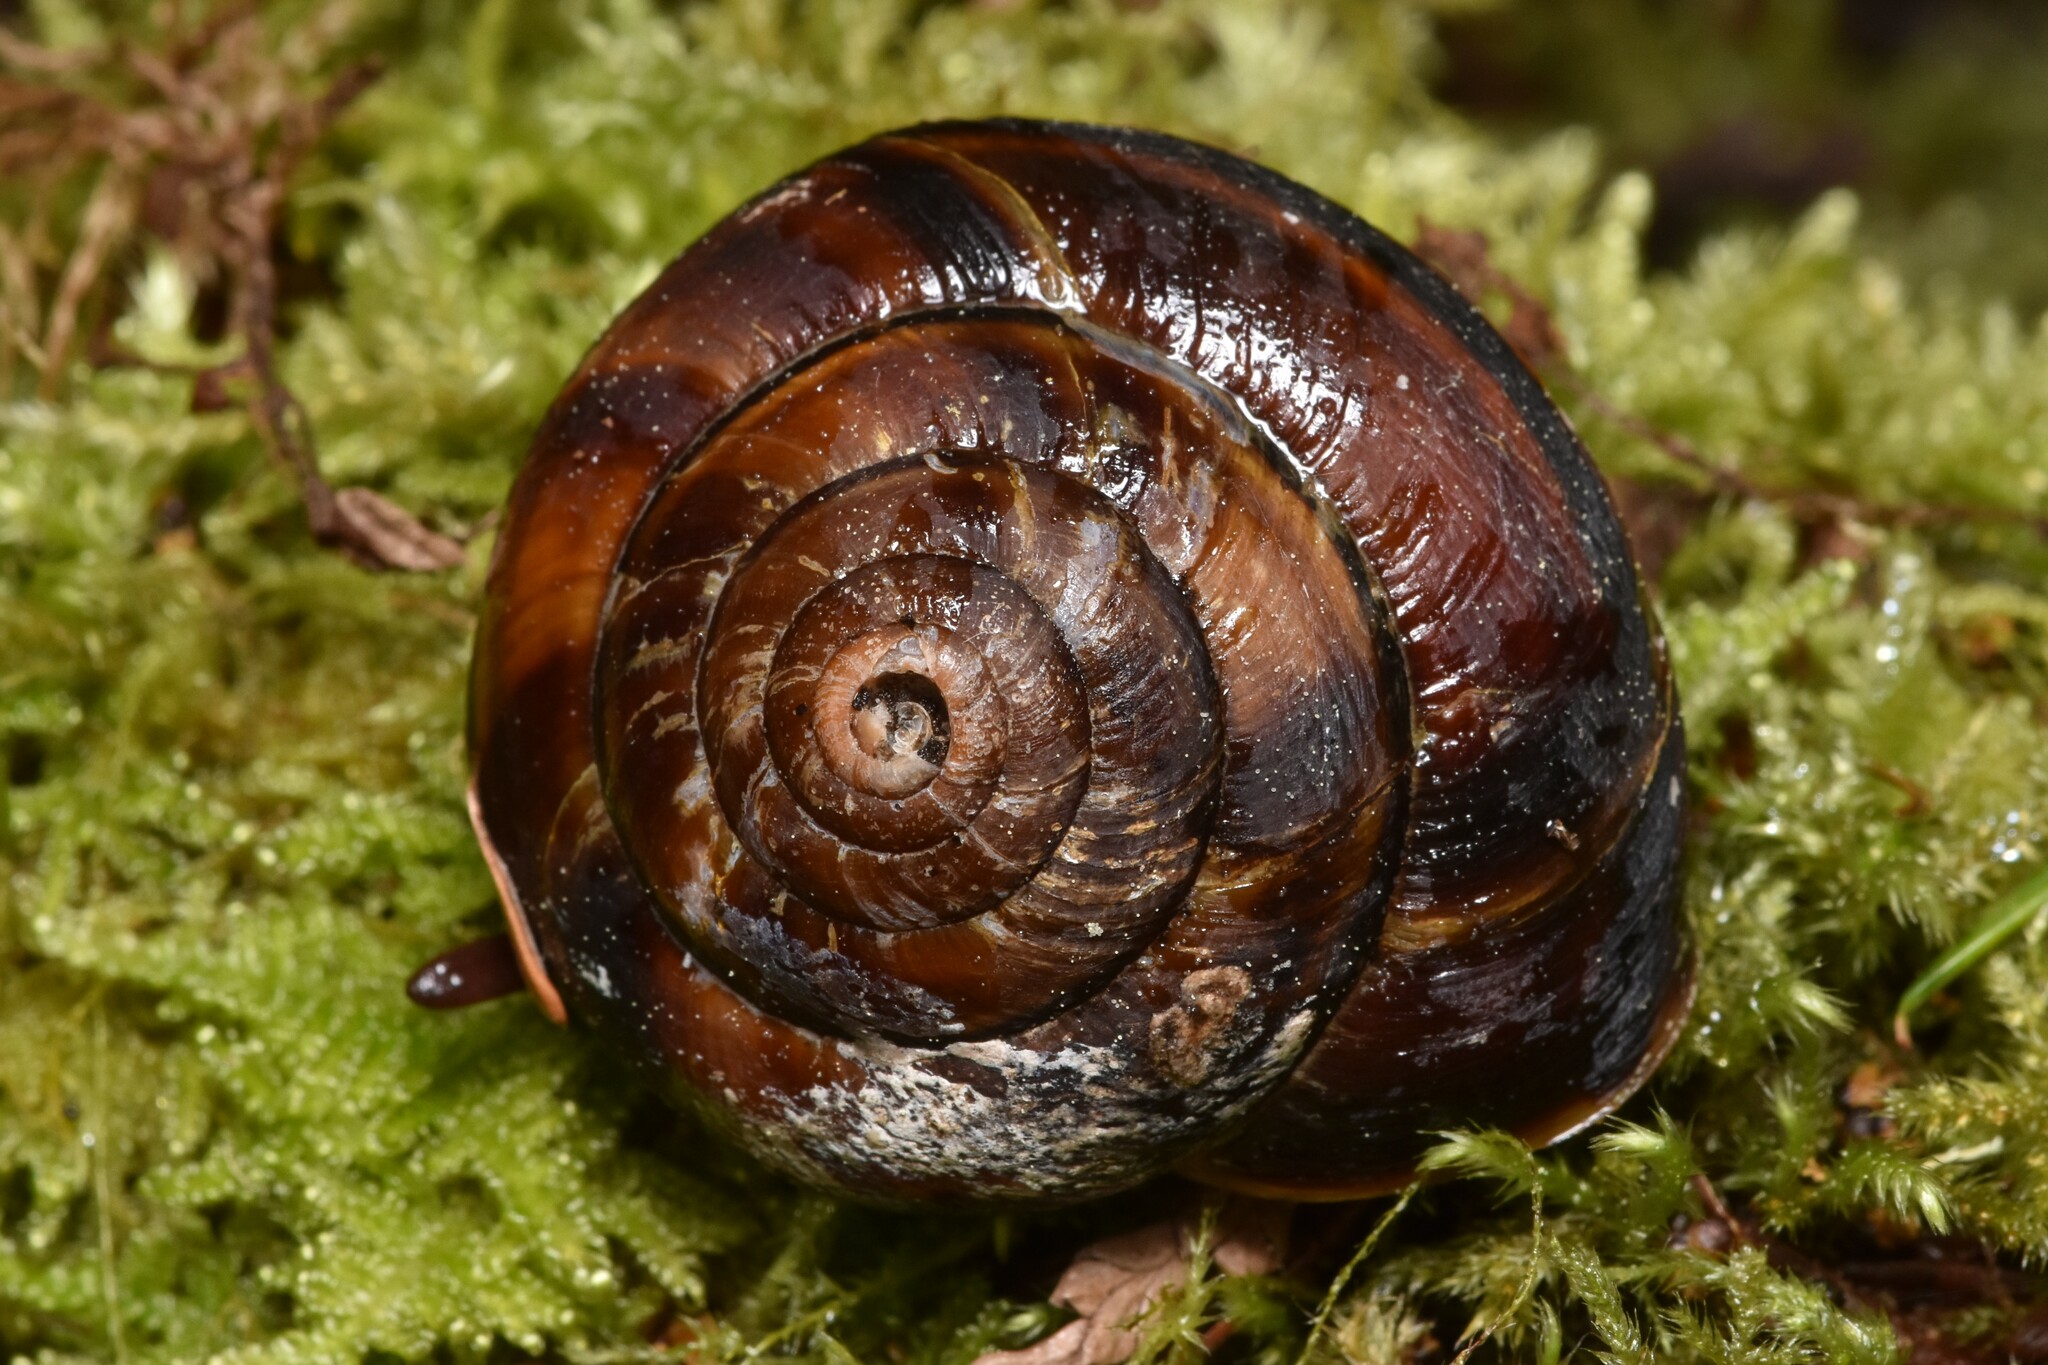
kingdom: Animalia
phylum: Mollusca
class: Gastropoda
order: Stylommatophora
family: Xanthonychidae
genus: Monadenia
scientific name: Monadenia fidelis
